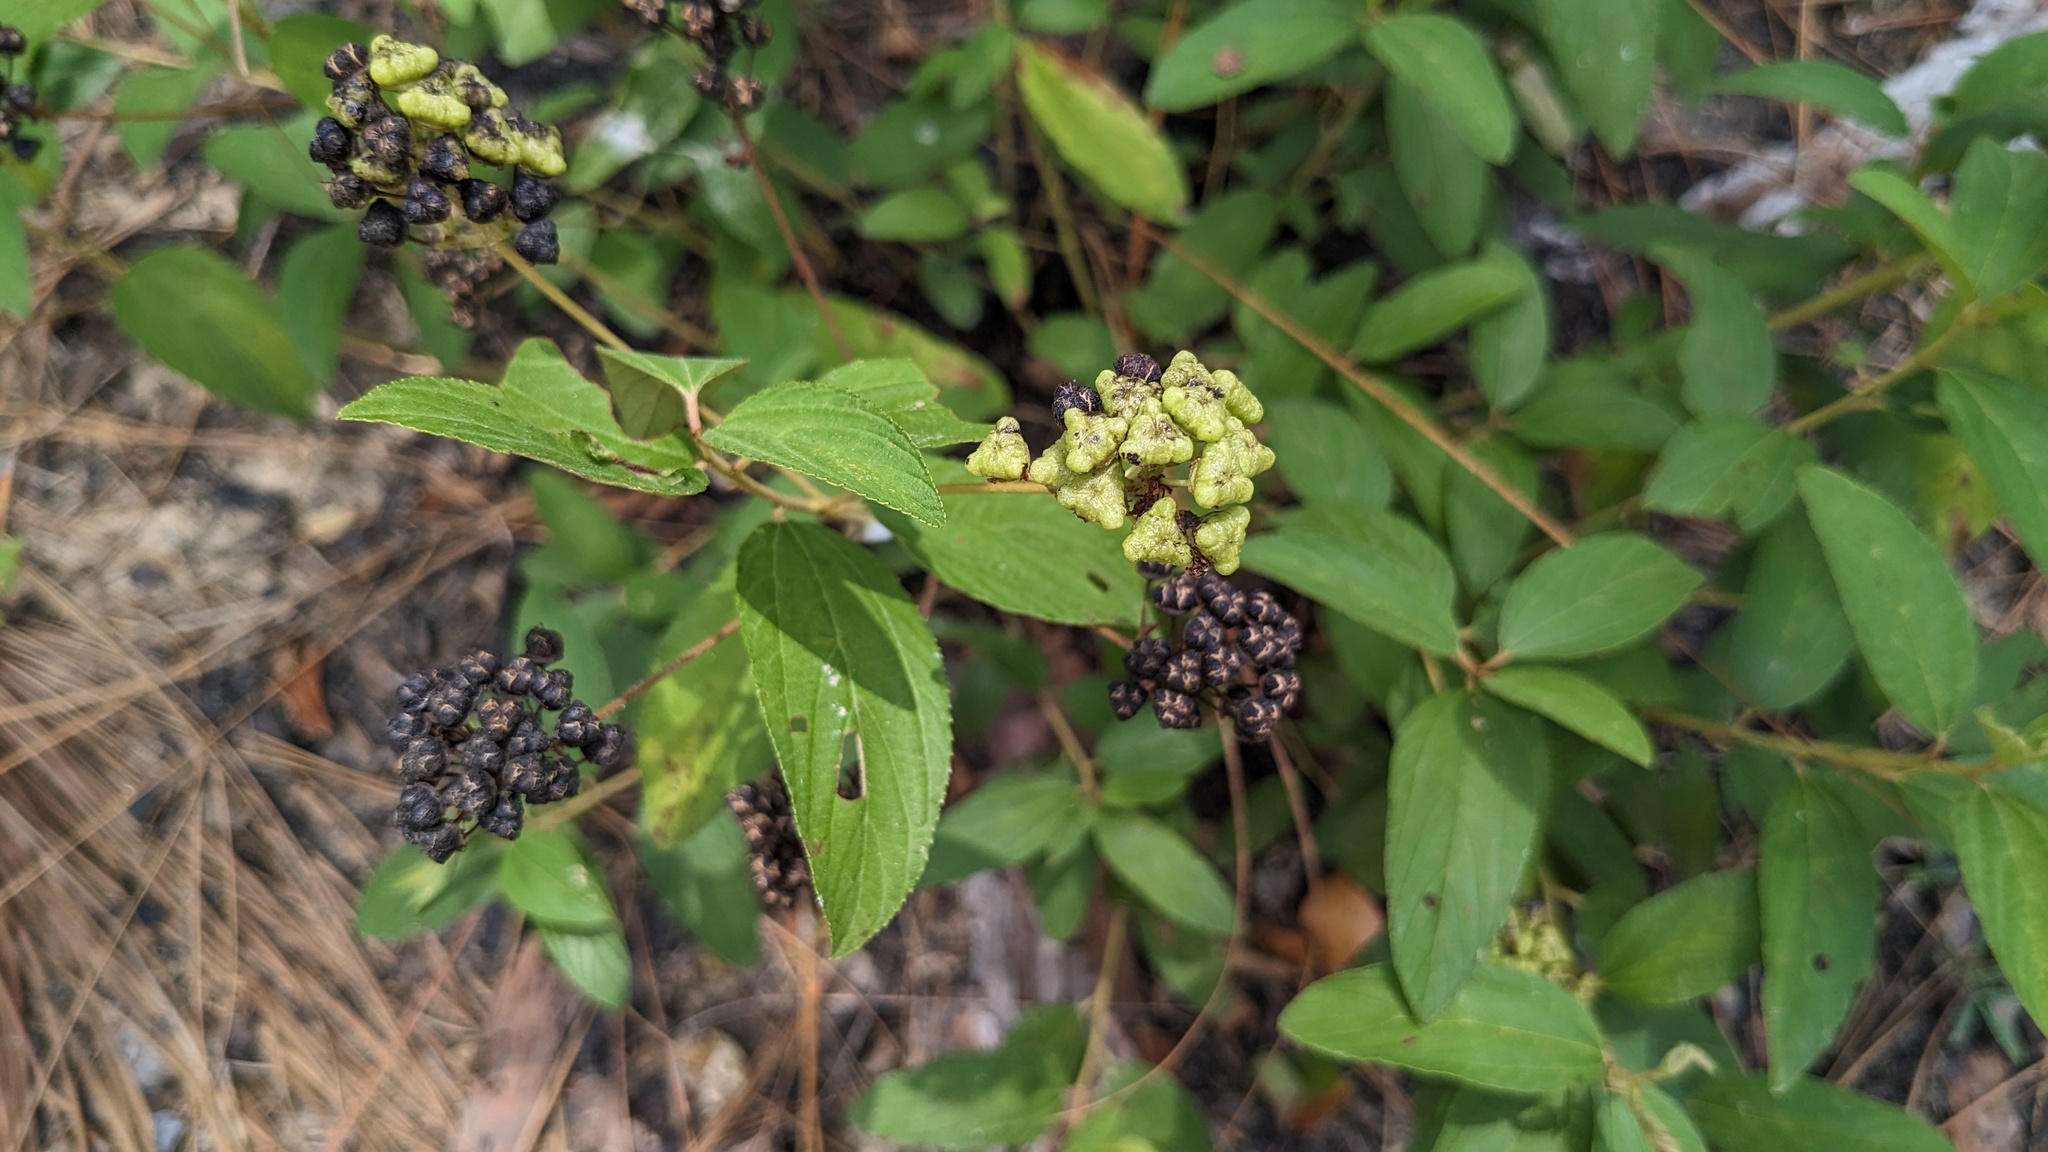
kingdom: Plantae
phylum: Tracheophyta
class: Magnoliopsida
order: Rosales
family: Rhamnaceae
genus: Ceanothus
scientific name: Ceanothus americanus
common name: Redroot
